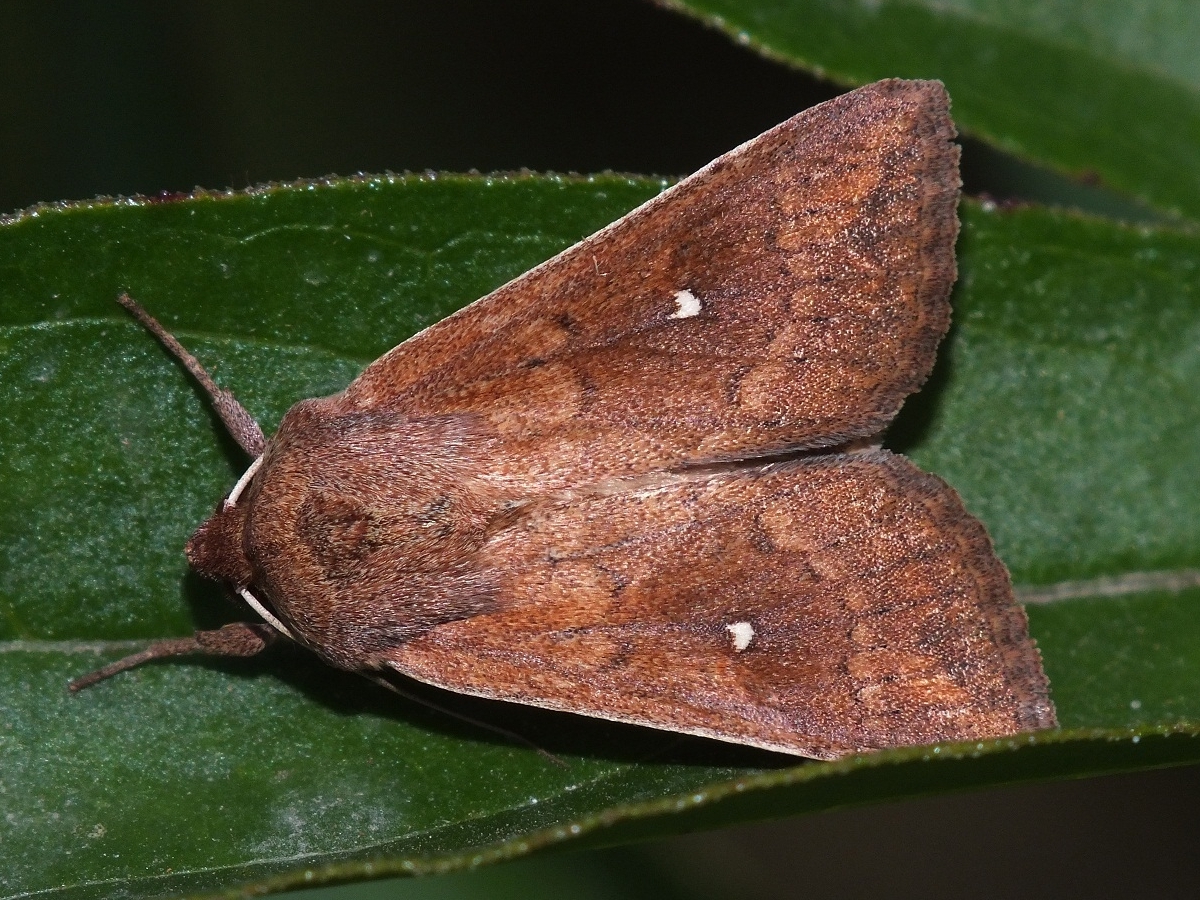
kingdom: Animalia
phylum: Arthropoda
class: Insecta
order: Lepidoptera
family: Noctuidae
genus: Mythimna
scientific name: Mythimna albipuncta
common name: White-point
